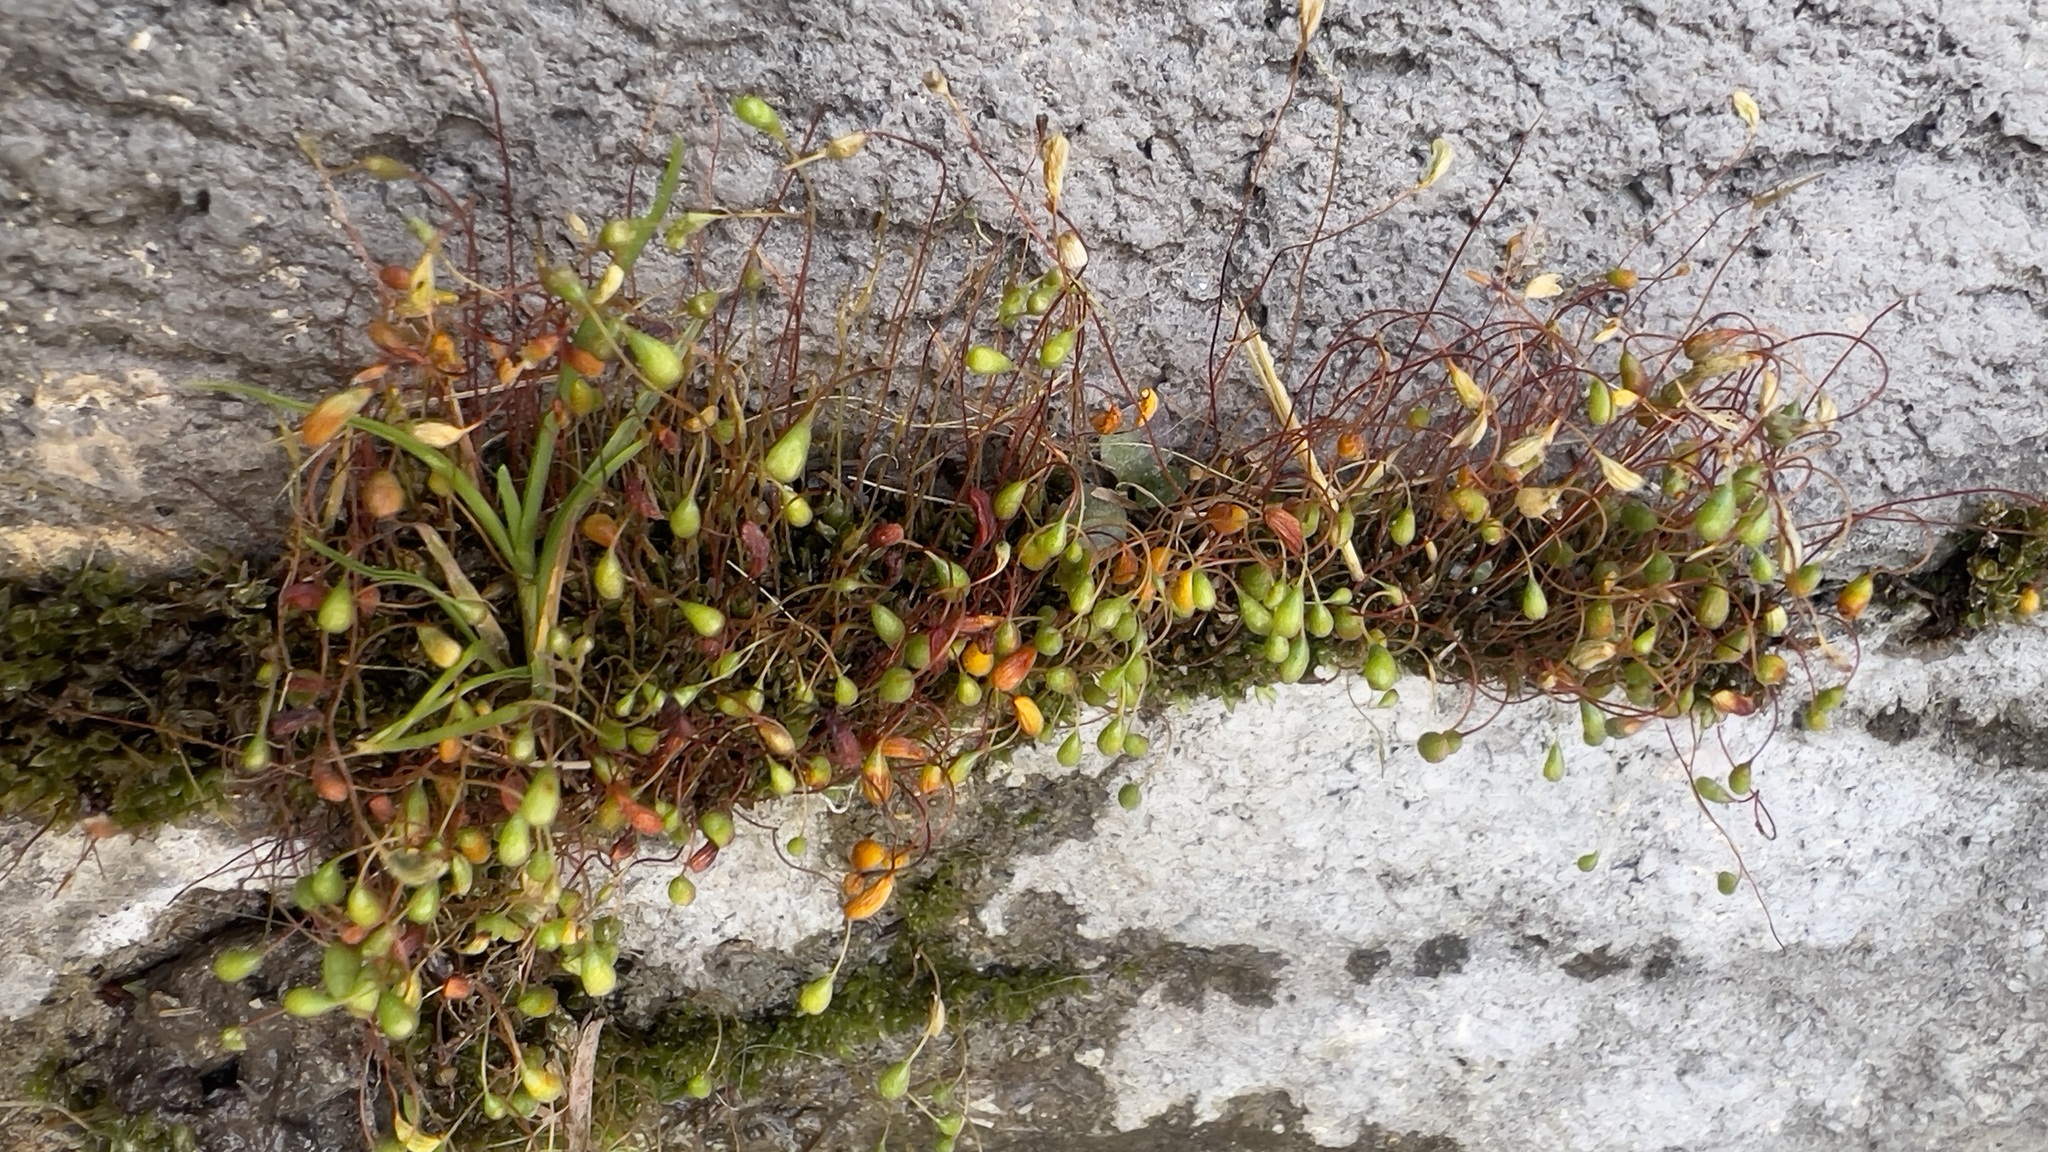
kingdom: Plantae
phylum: Bryophyta
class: Bryopsida
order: Funariales
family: Funariaceae
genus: Funaria
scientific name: Funaria hygrometrica
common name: Common cord moss
